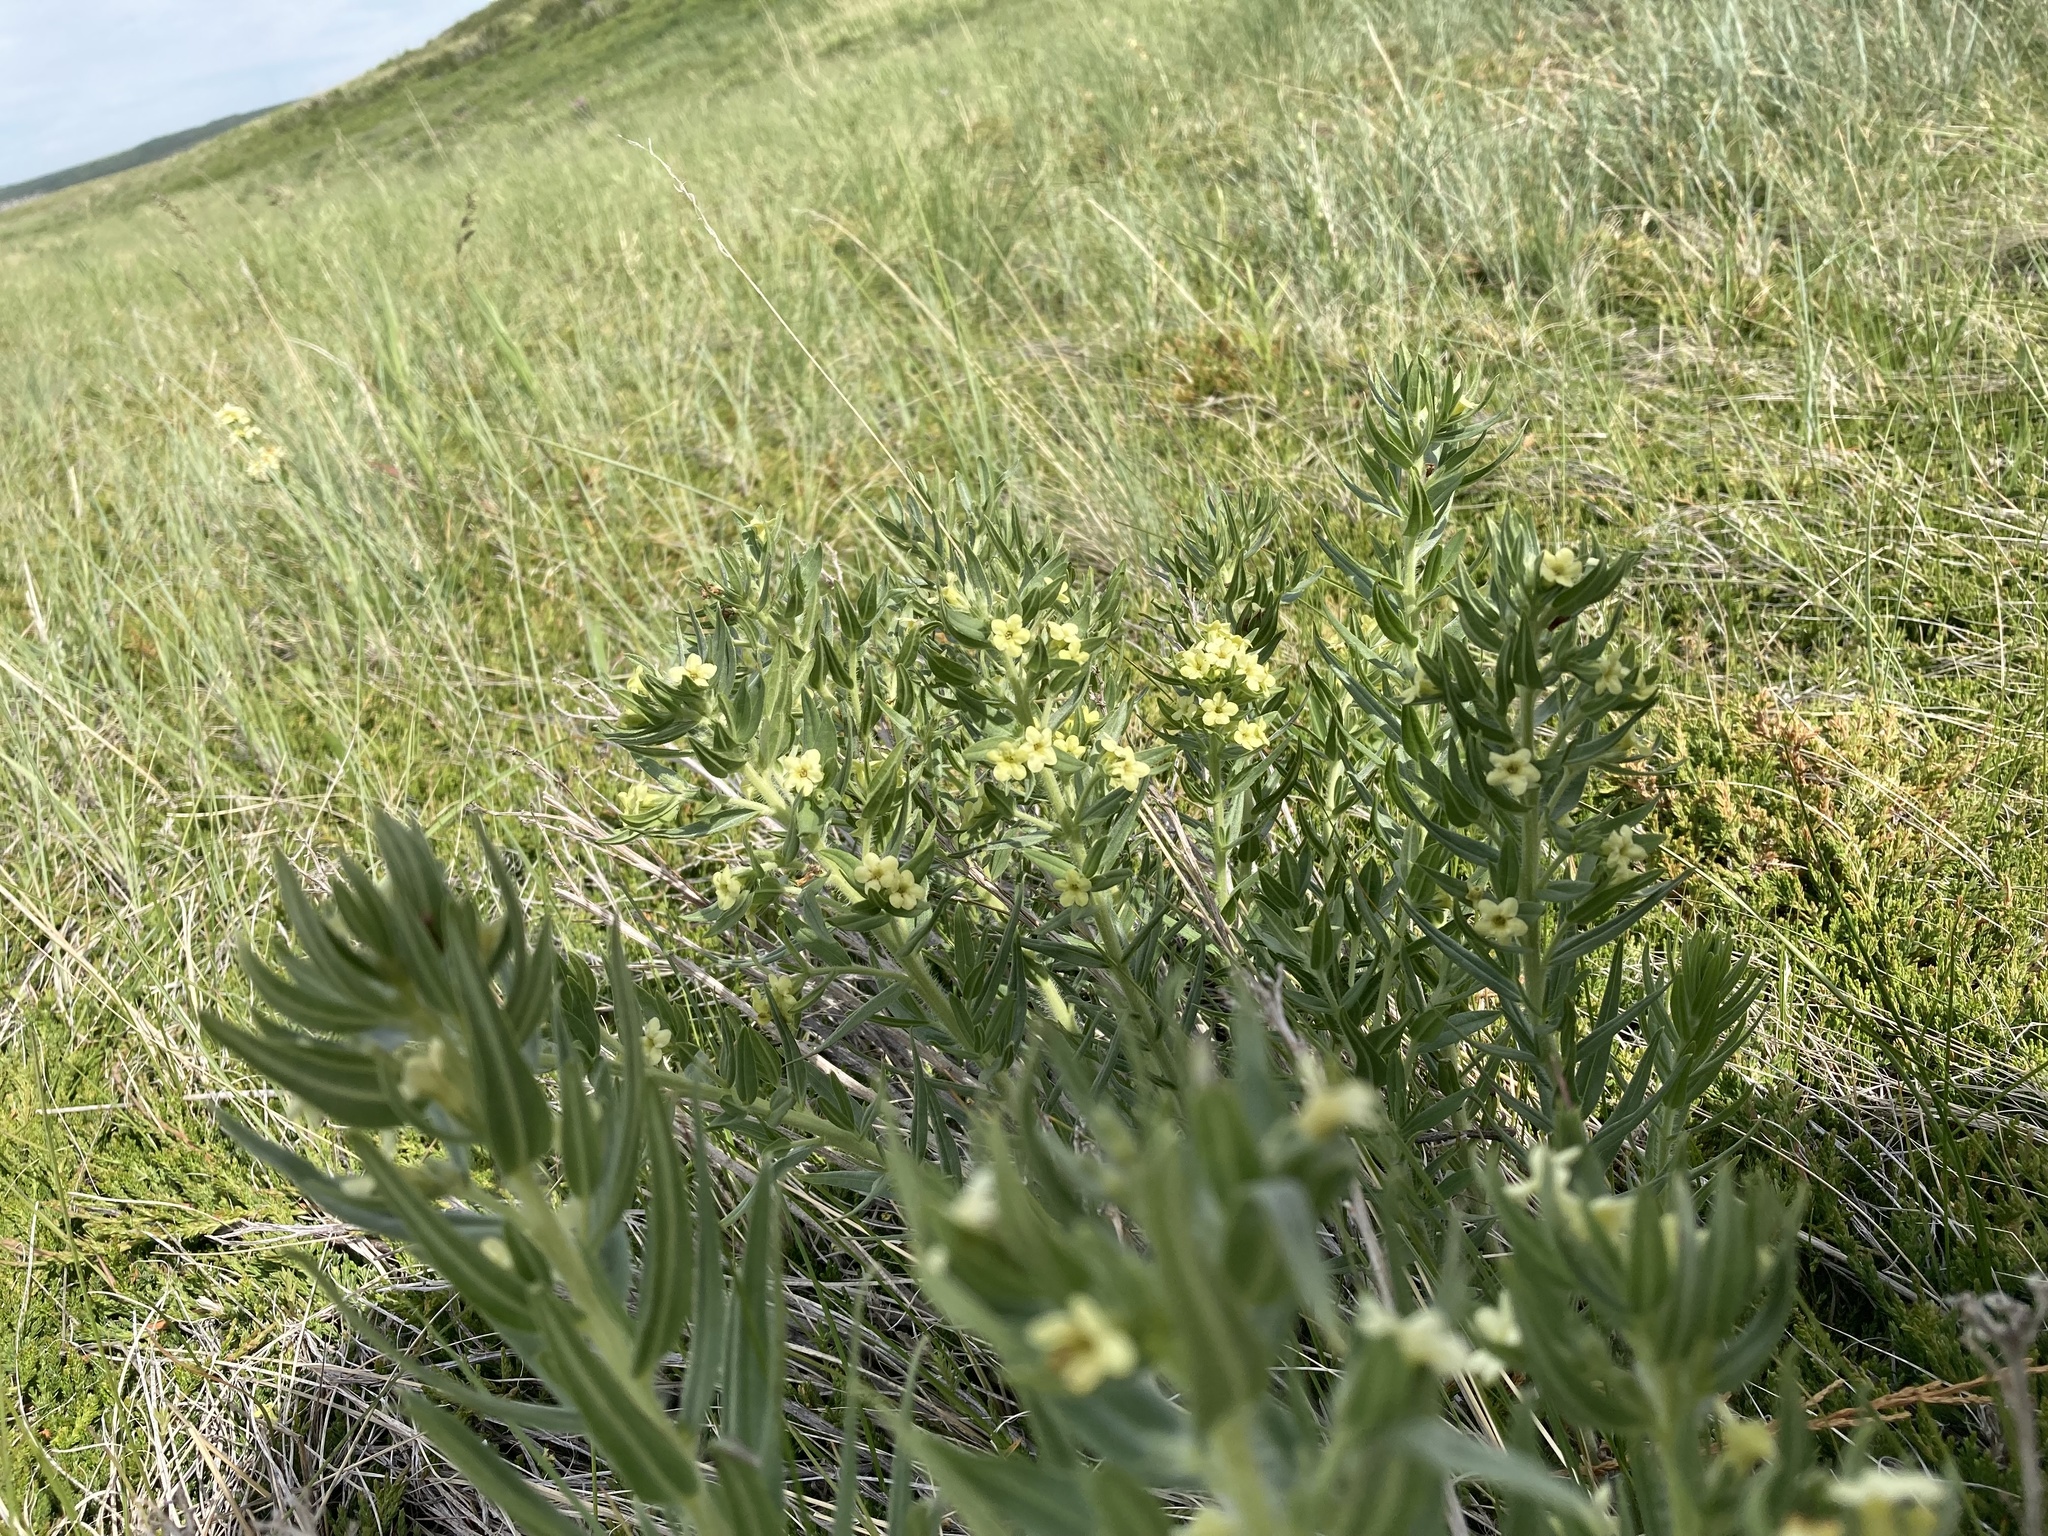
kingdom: Plantae
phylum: Tracheophyta
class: Magnoliopsida
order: Boraginales
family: Boraginaceae
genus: Lithospermum
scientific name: Lithospermum ruderale
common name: Western gromwell
